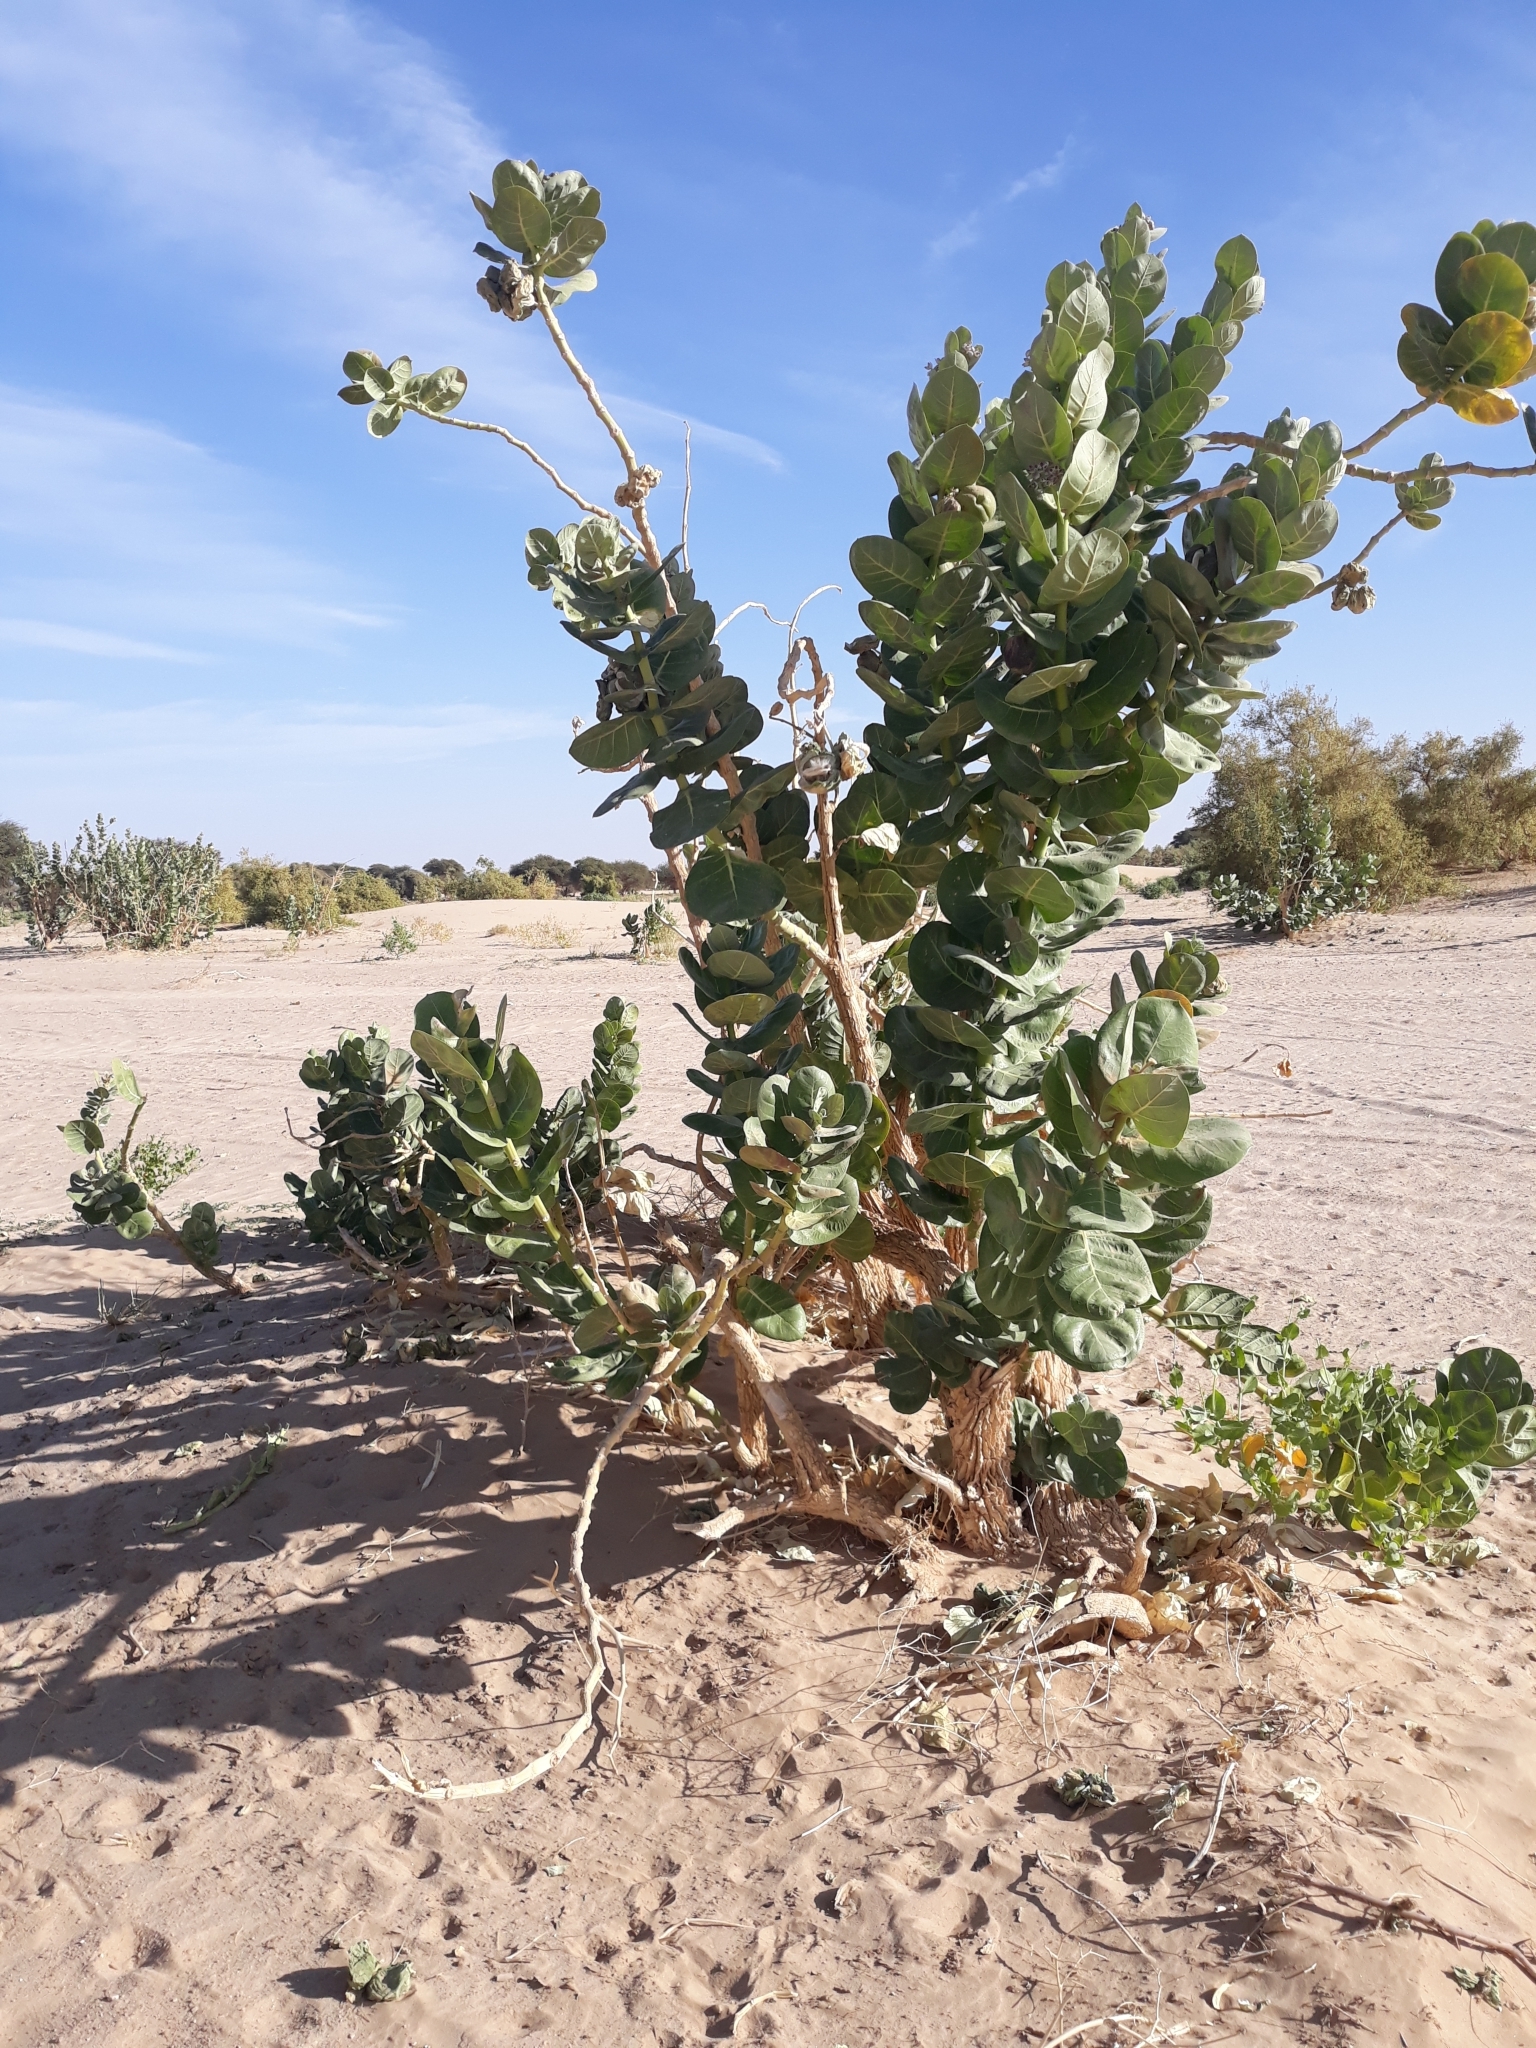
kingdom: Plantae
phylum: Tracheophyta
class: Magnoliopsida
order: Gentianales
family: Apocynaceae
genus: Calotropis
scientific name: Calotropis procera
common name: Roostertree
